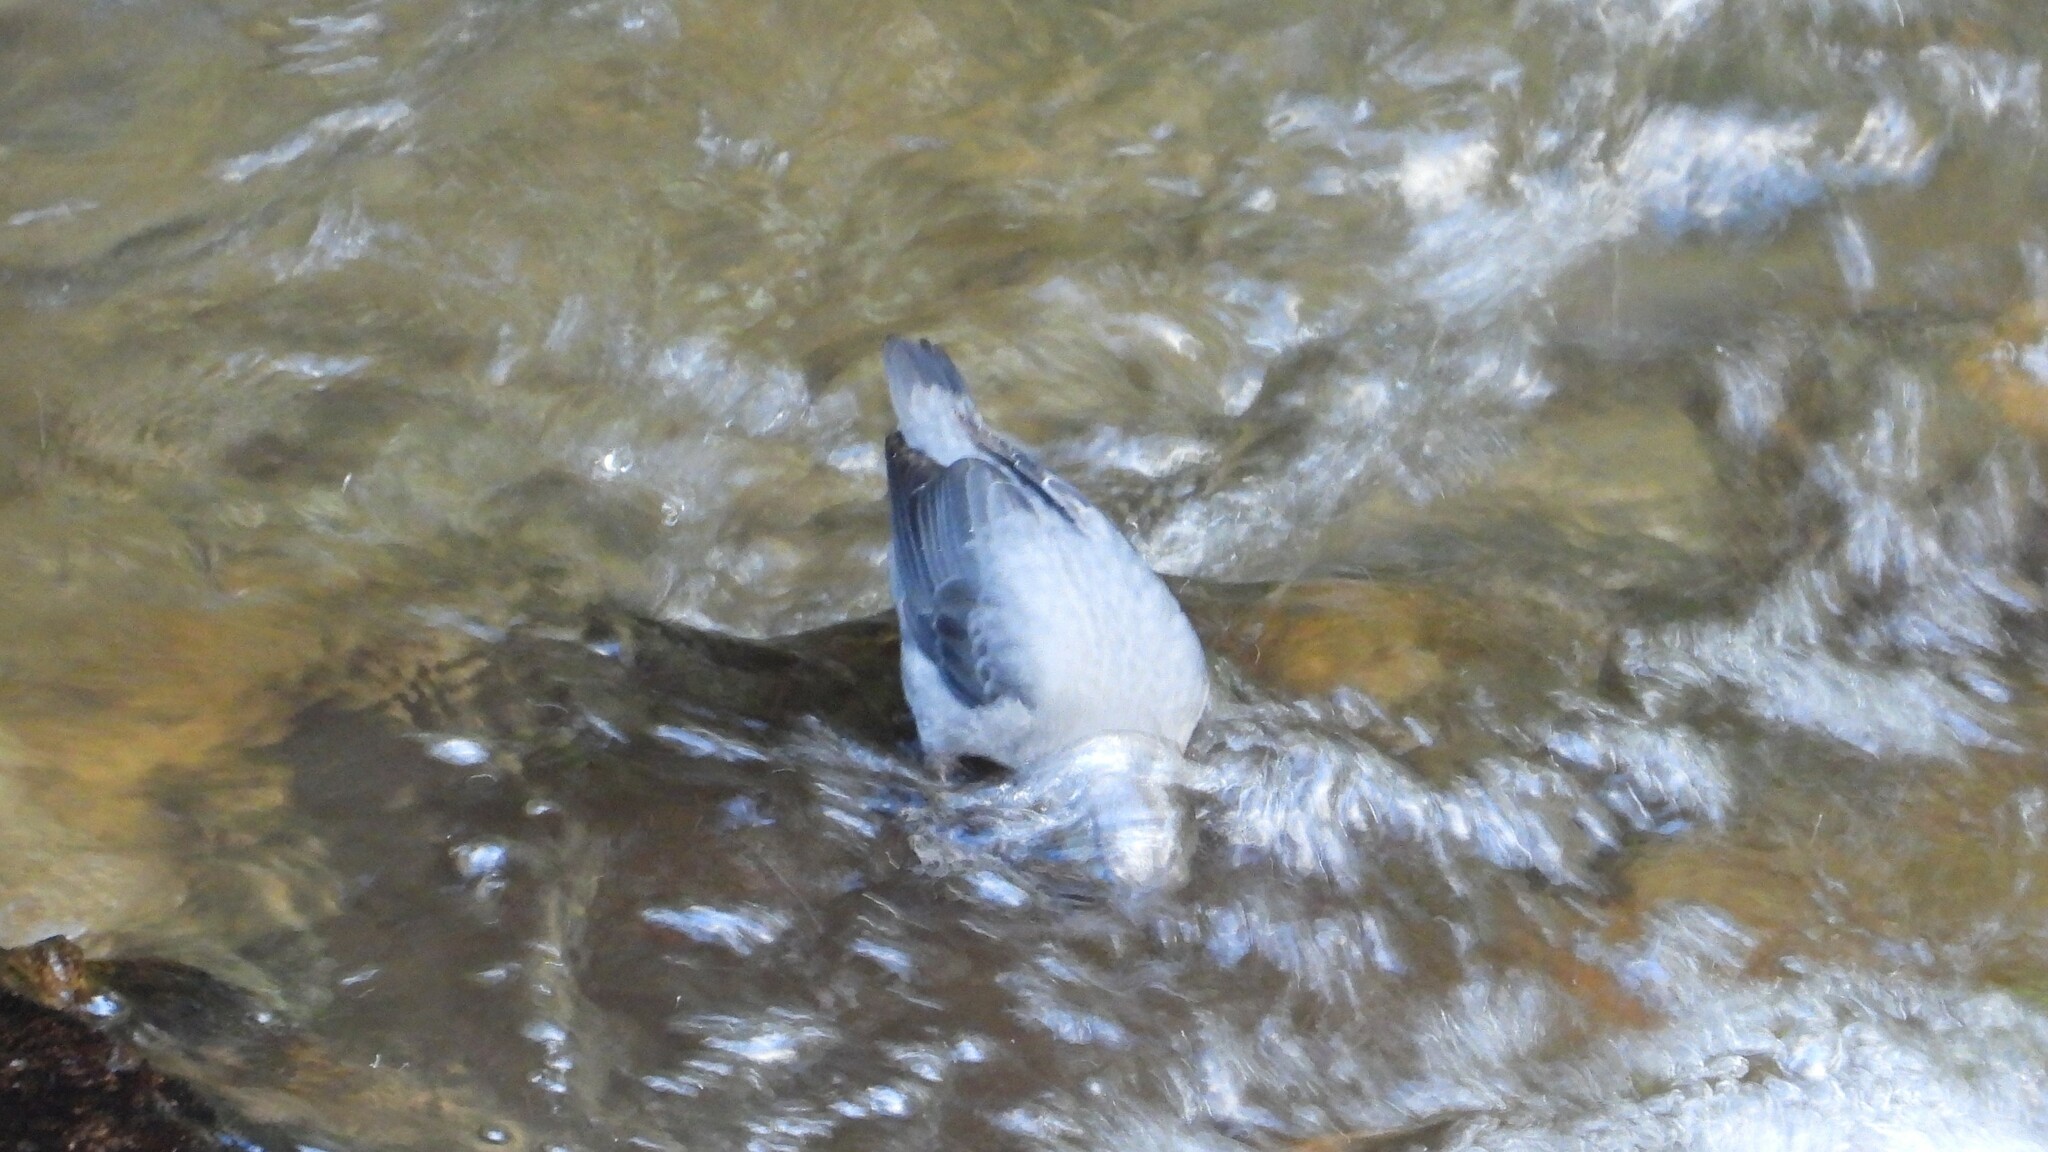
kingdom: Animalia
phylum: Chordata
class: Aves
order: Passeriformes
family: Cinclidae
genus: Cinclus
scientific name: Cinclus mexicanus
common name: American dipper
